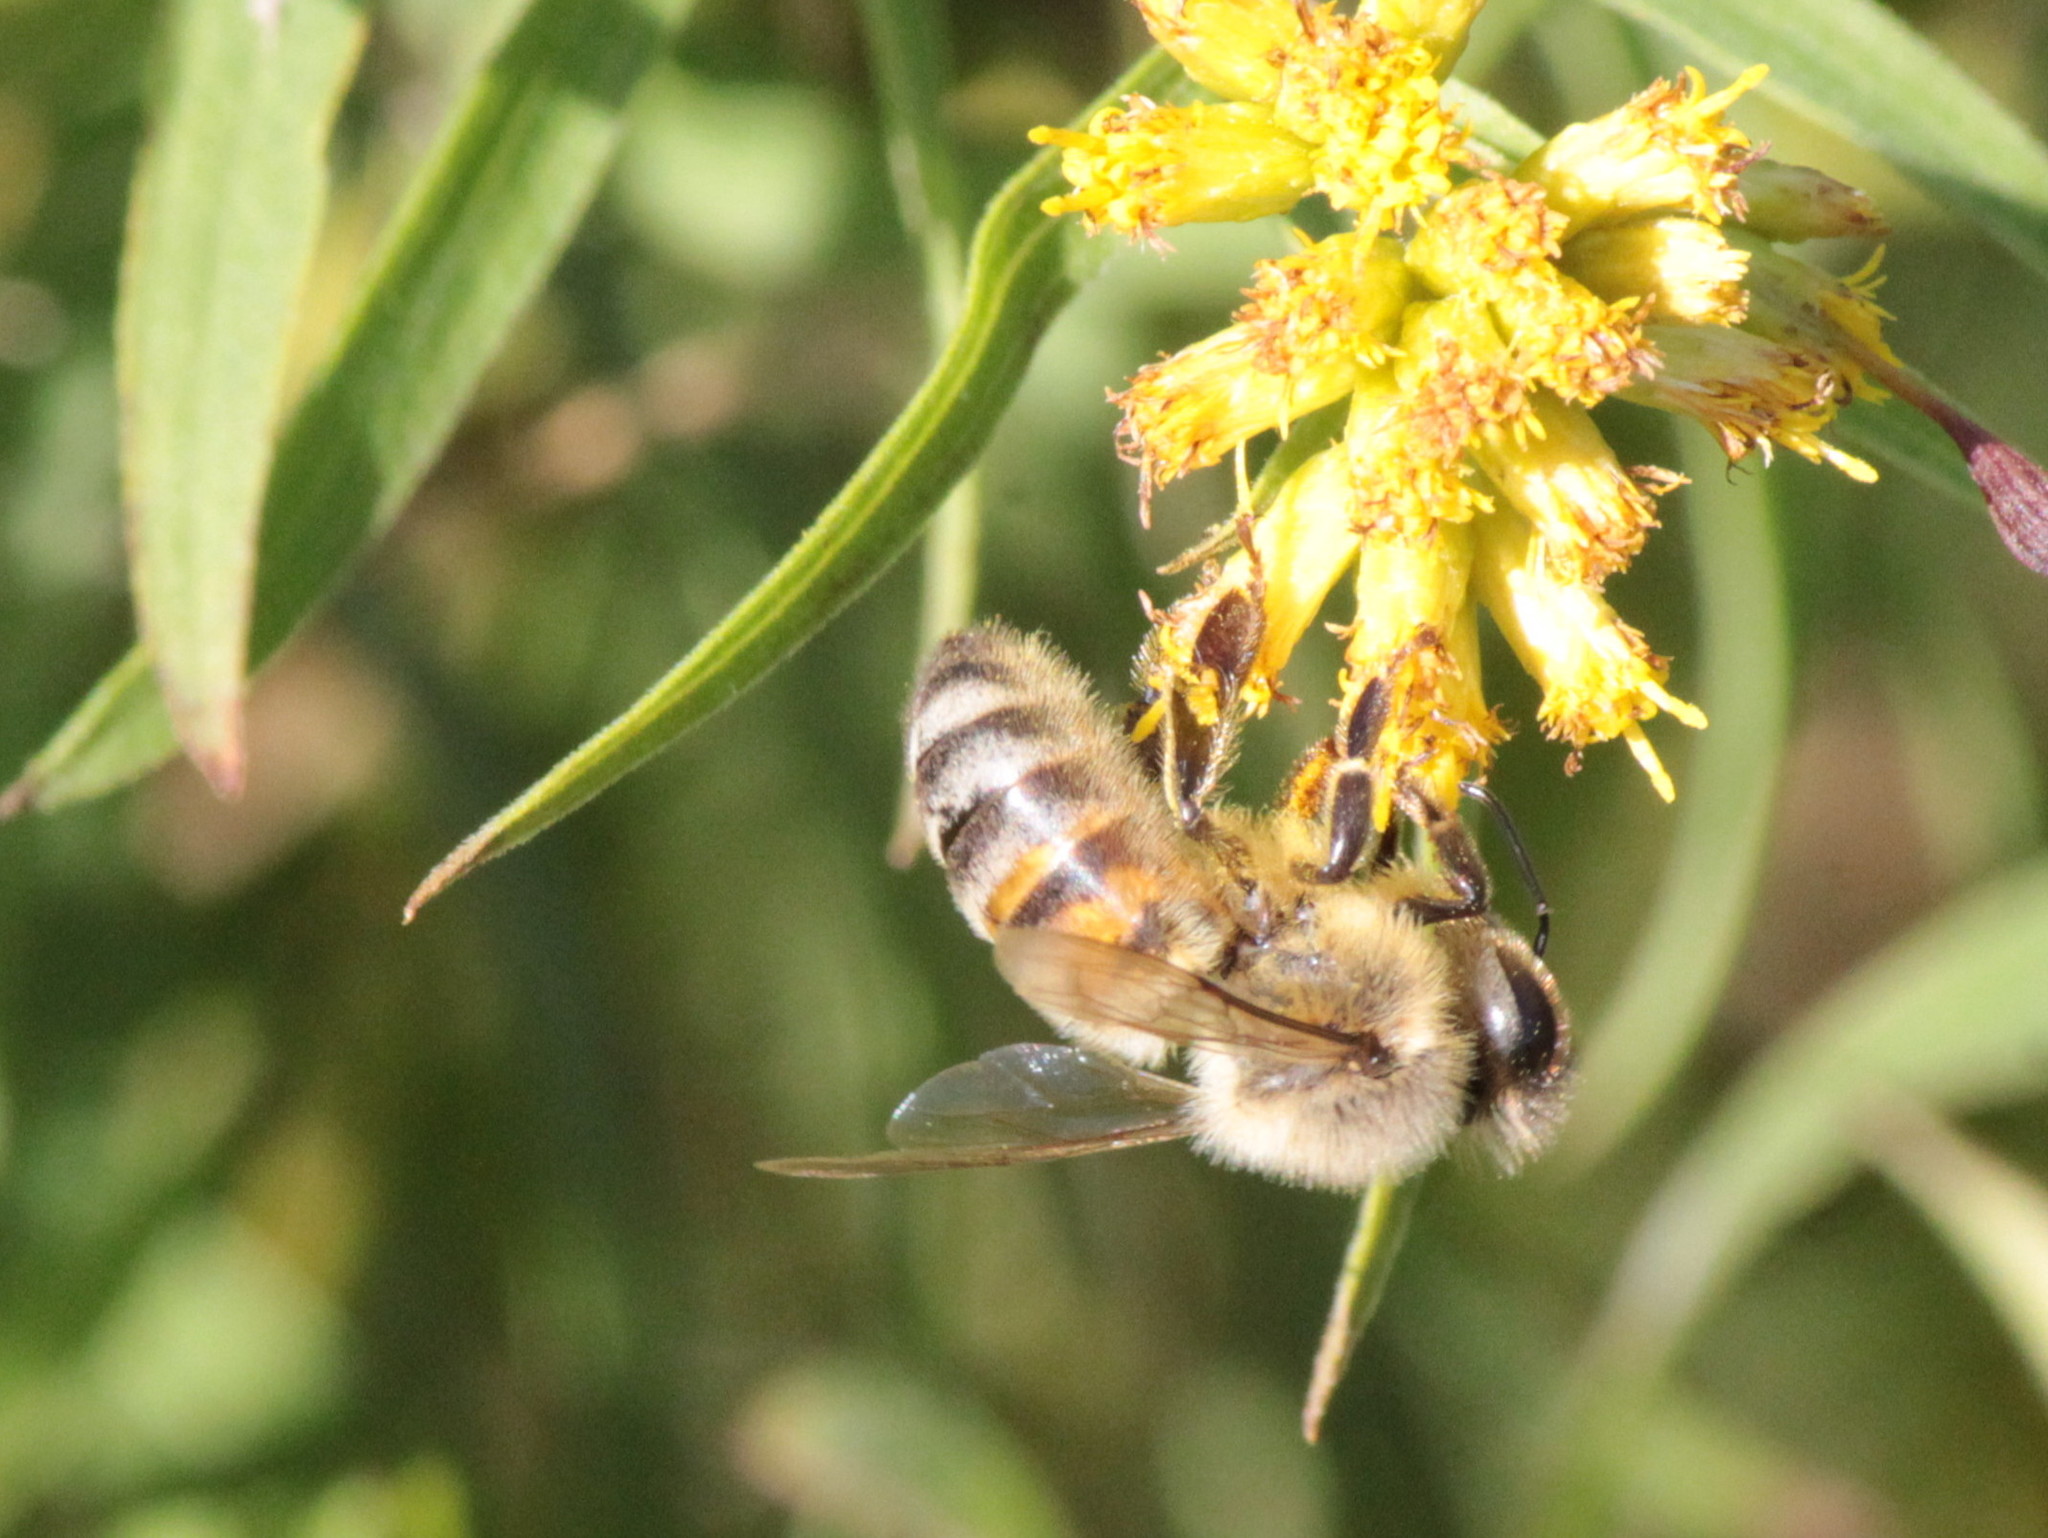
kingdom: Animalia
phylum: Arthropoda
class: Insecta
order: Hymenoptera
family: Apidae
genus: Apis
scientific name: Apis mellifera
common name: Honey bee
